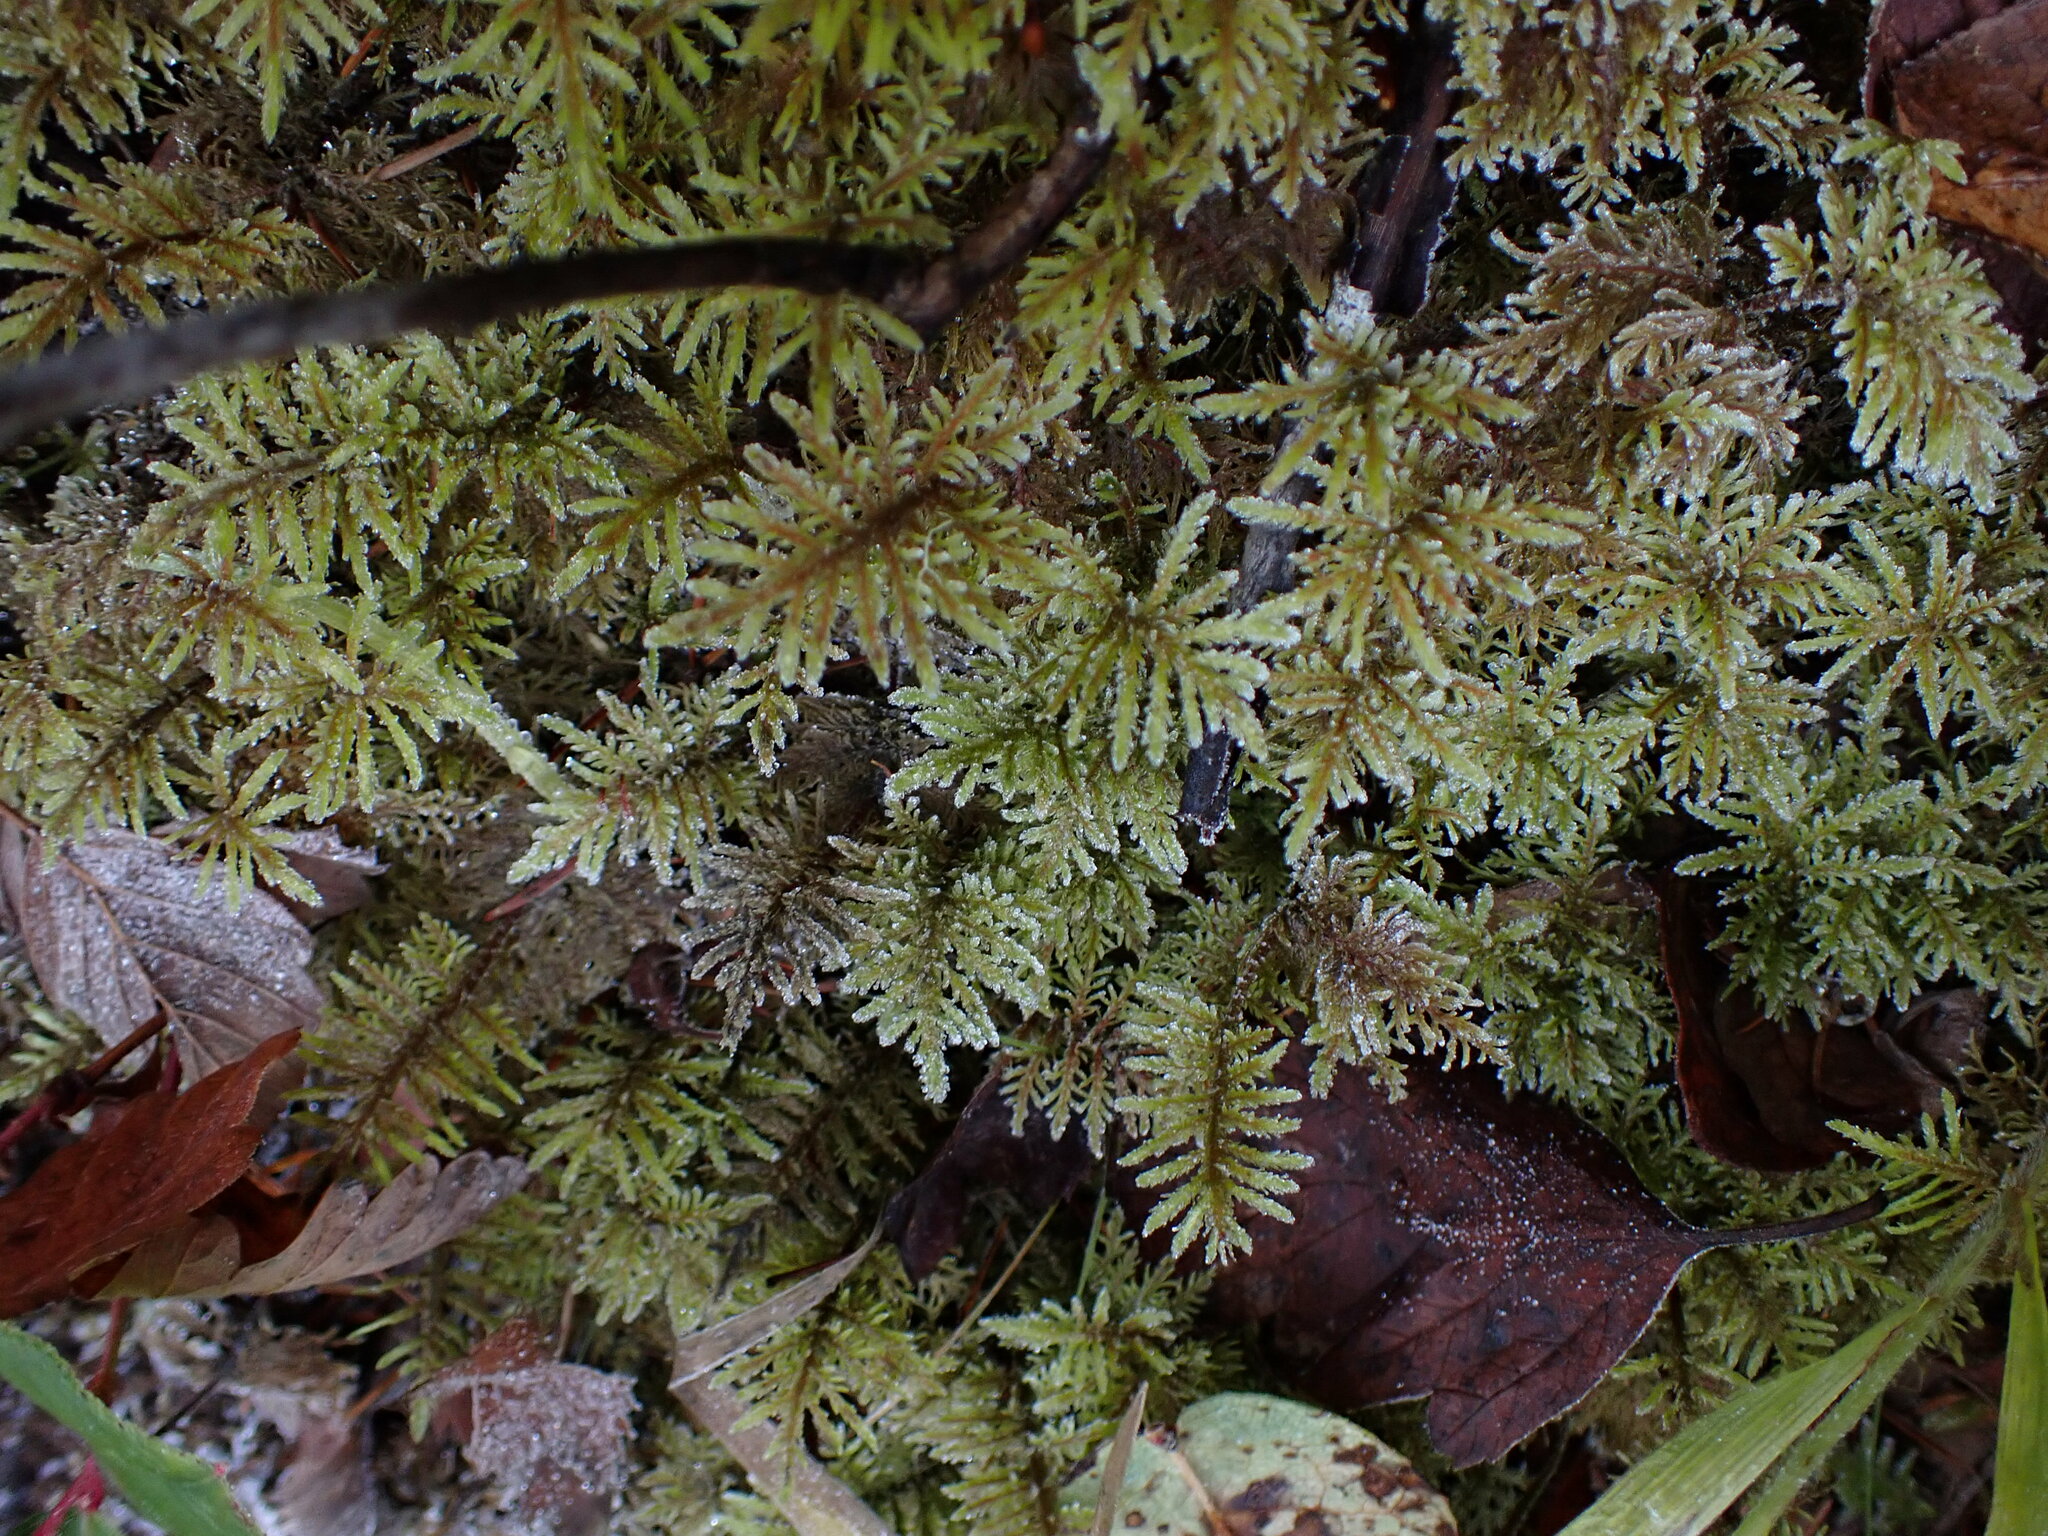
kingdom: Plantae
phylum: Bryophyta
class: Bryopsida
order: Hypnales
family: Hylocomiaceae
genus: Hylocomium
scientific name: Hylocomium splendens
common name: Stairstep moss
